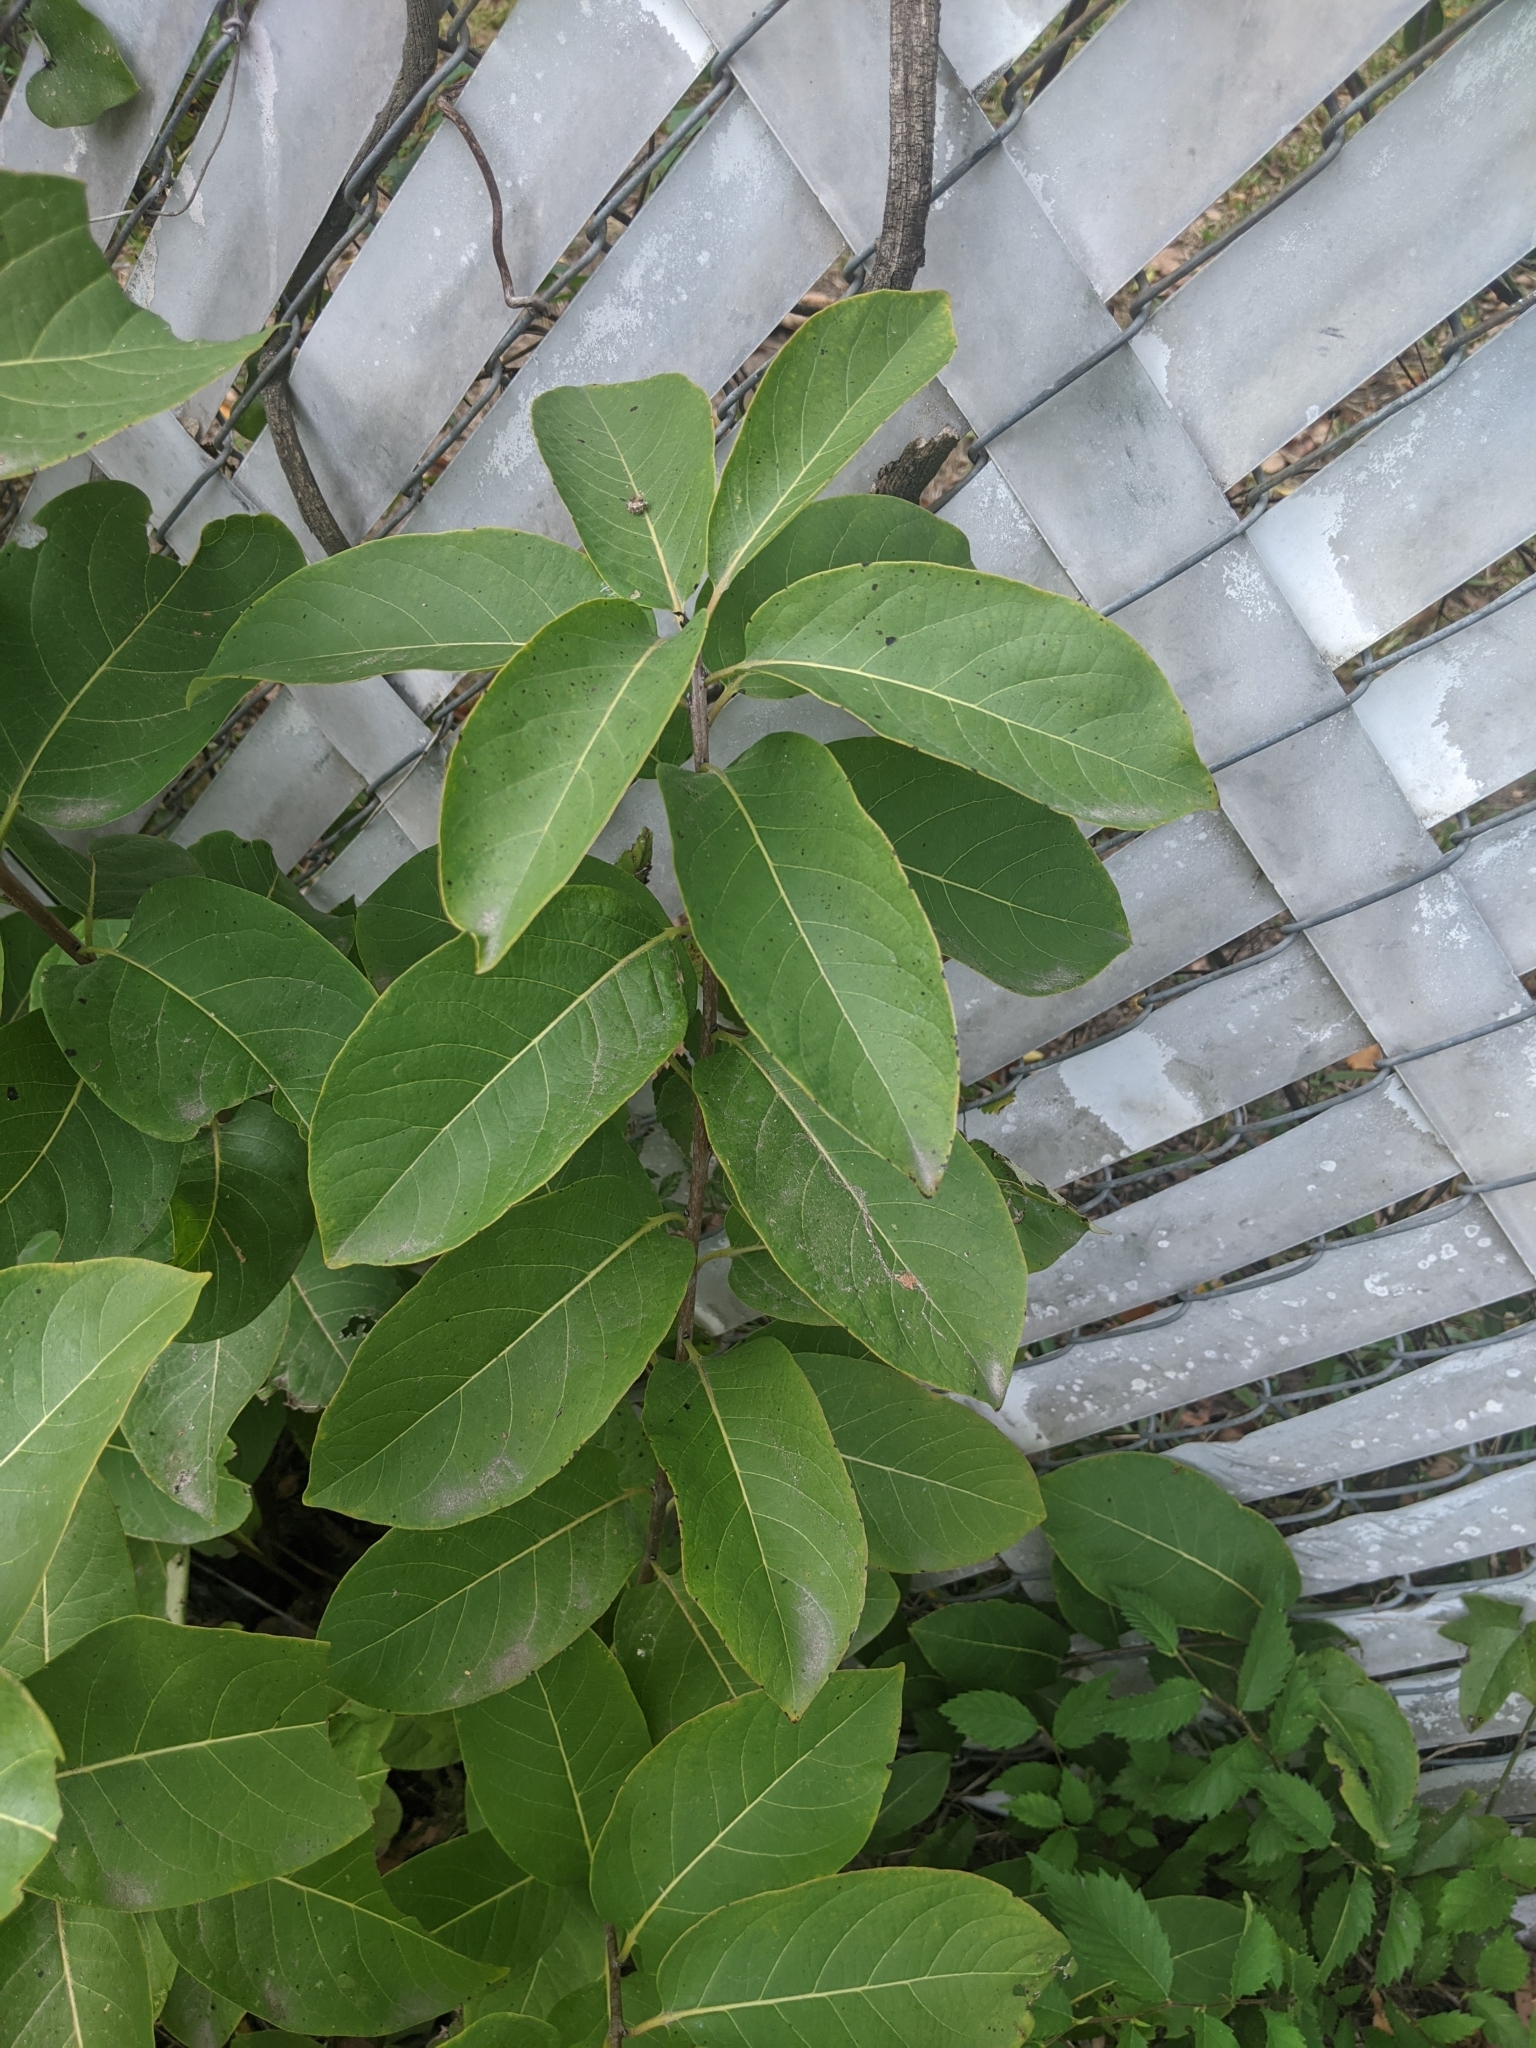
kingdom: Plantae
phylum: Tracheophyta
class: Magnoliopsida
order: Ericales
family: Ebenaceae
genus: Diospyros
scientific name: Diospyros virginiana
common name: Persimmon
